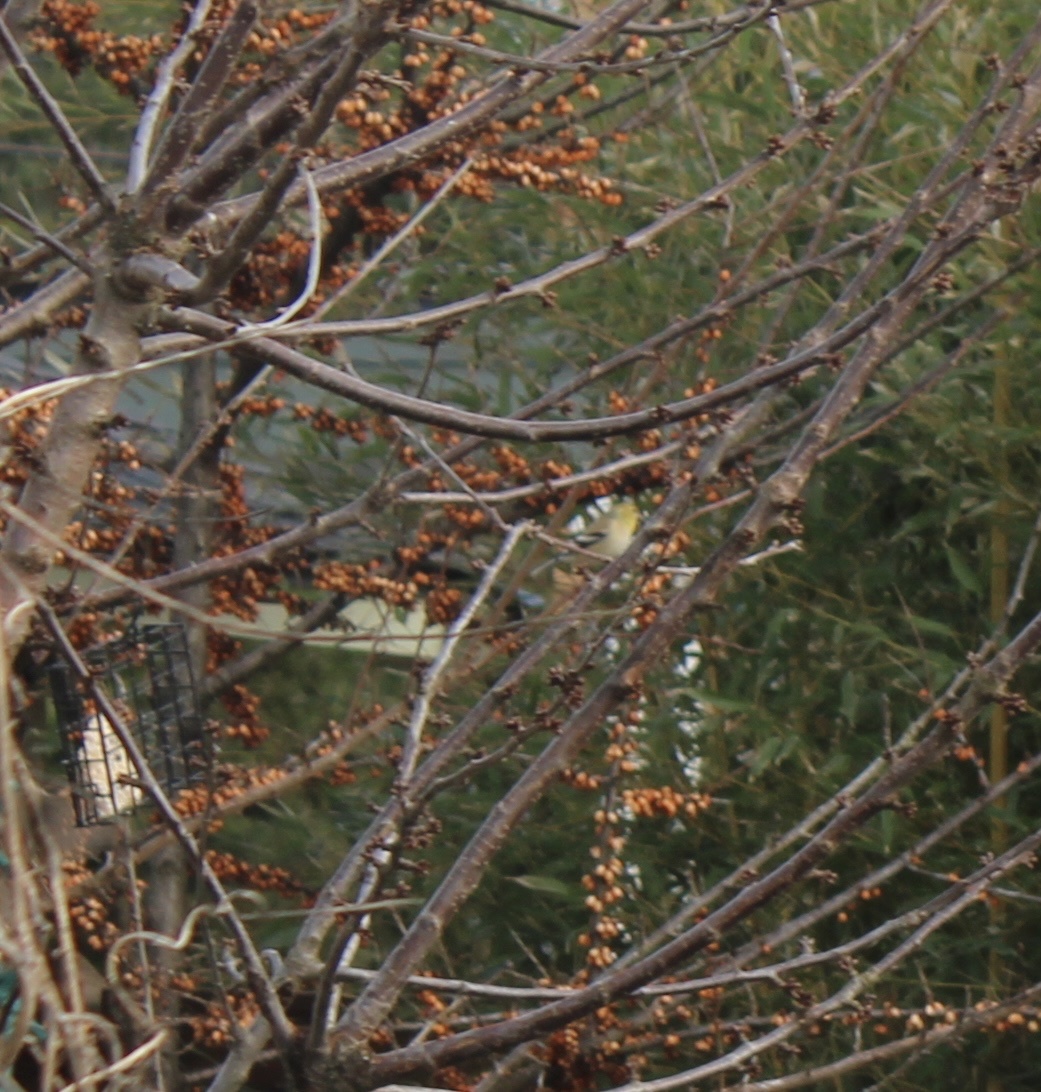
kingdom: Animalia
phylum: Chordata
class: Aves
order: Passeriformes
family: Fringillidae
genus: Spinus
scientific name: Spinus tristis
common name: American goldfinch
